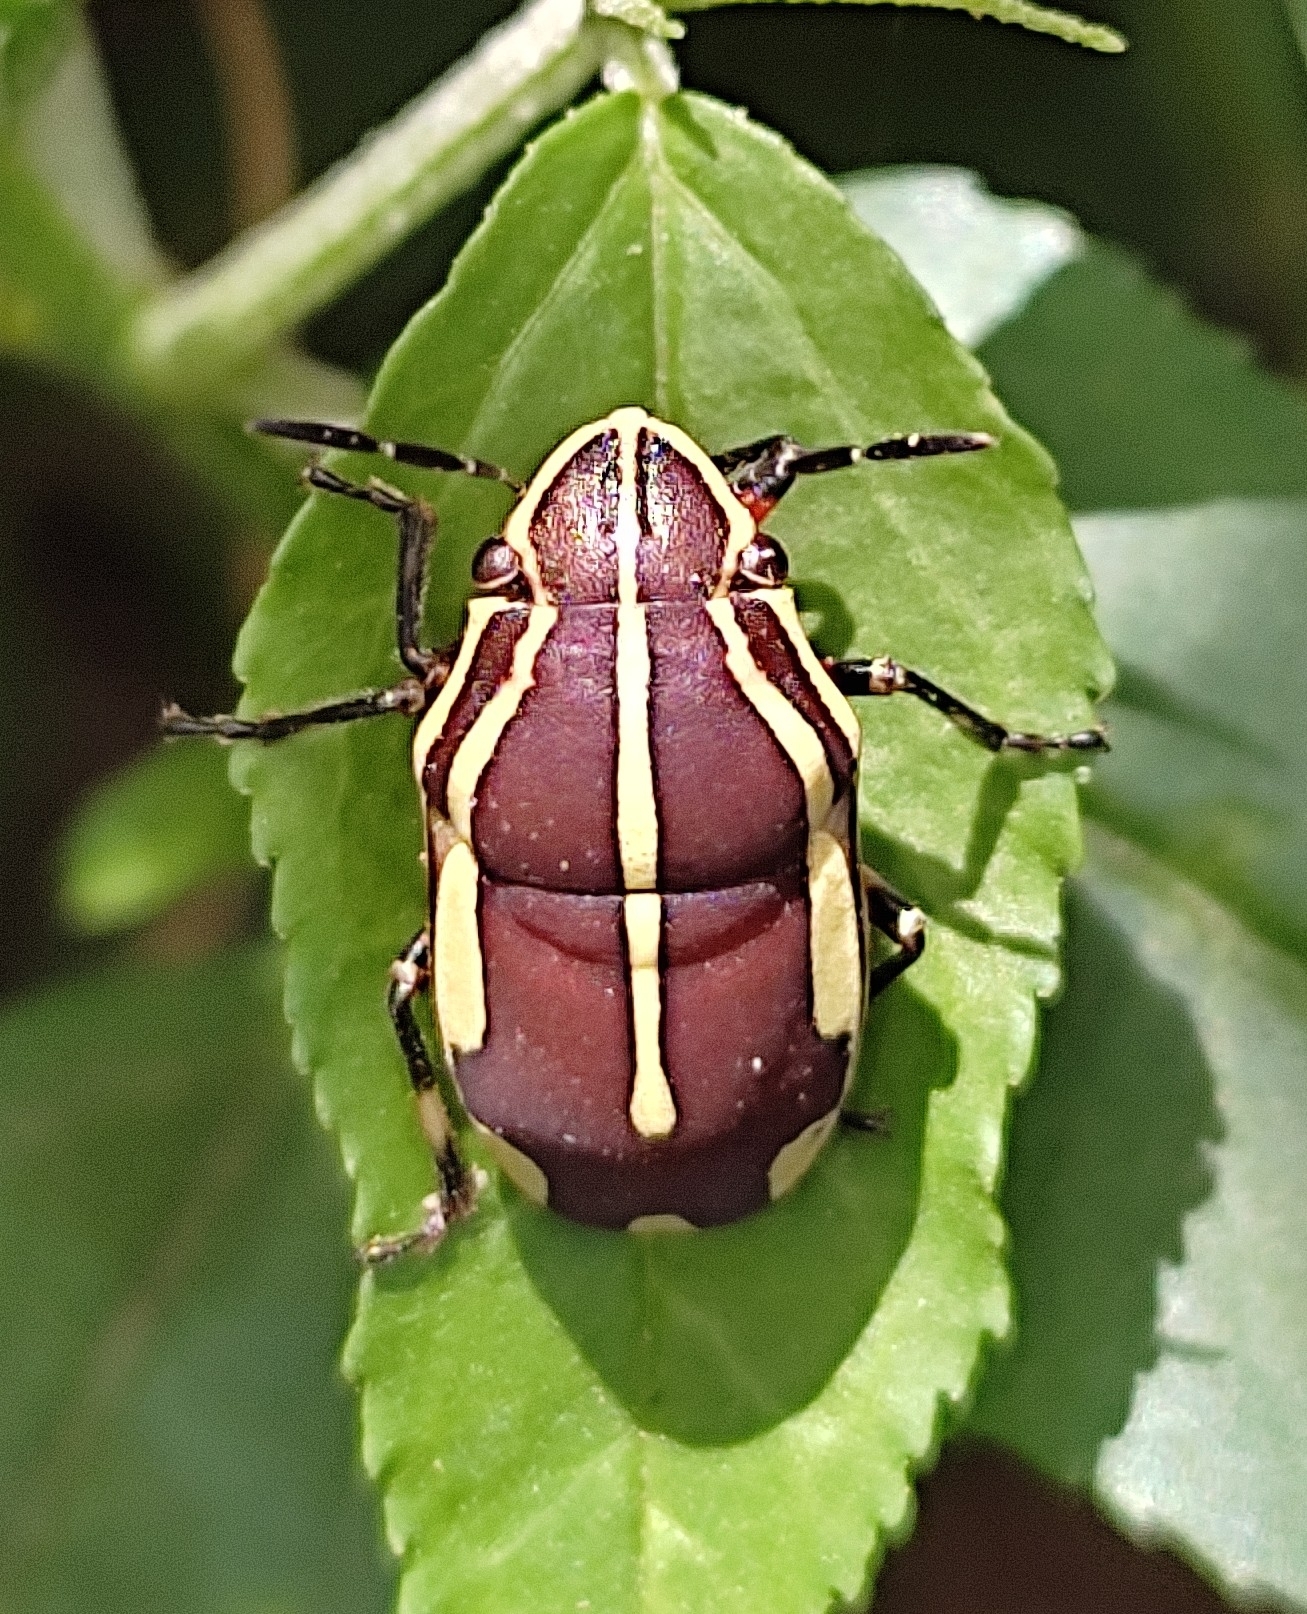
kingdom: Animalia
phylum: Arthropoda
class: Insecta
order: Hemiptera
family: Scutelleridae
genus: Agonosoma
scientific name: Agonosoma flavolineata
